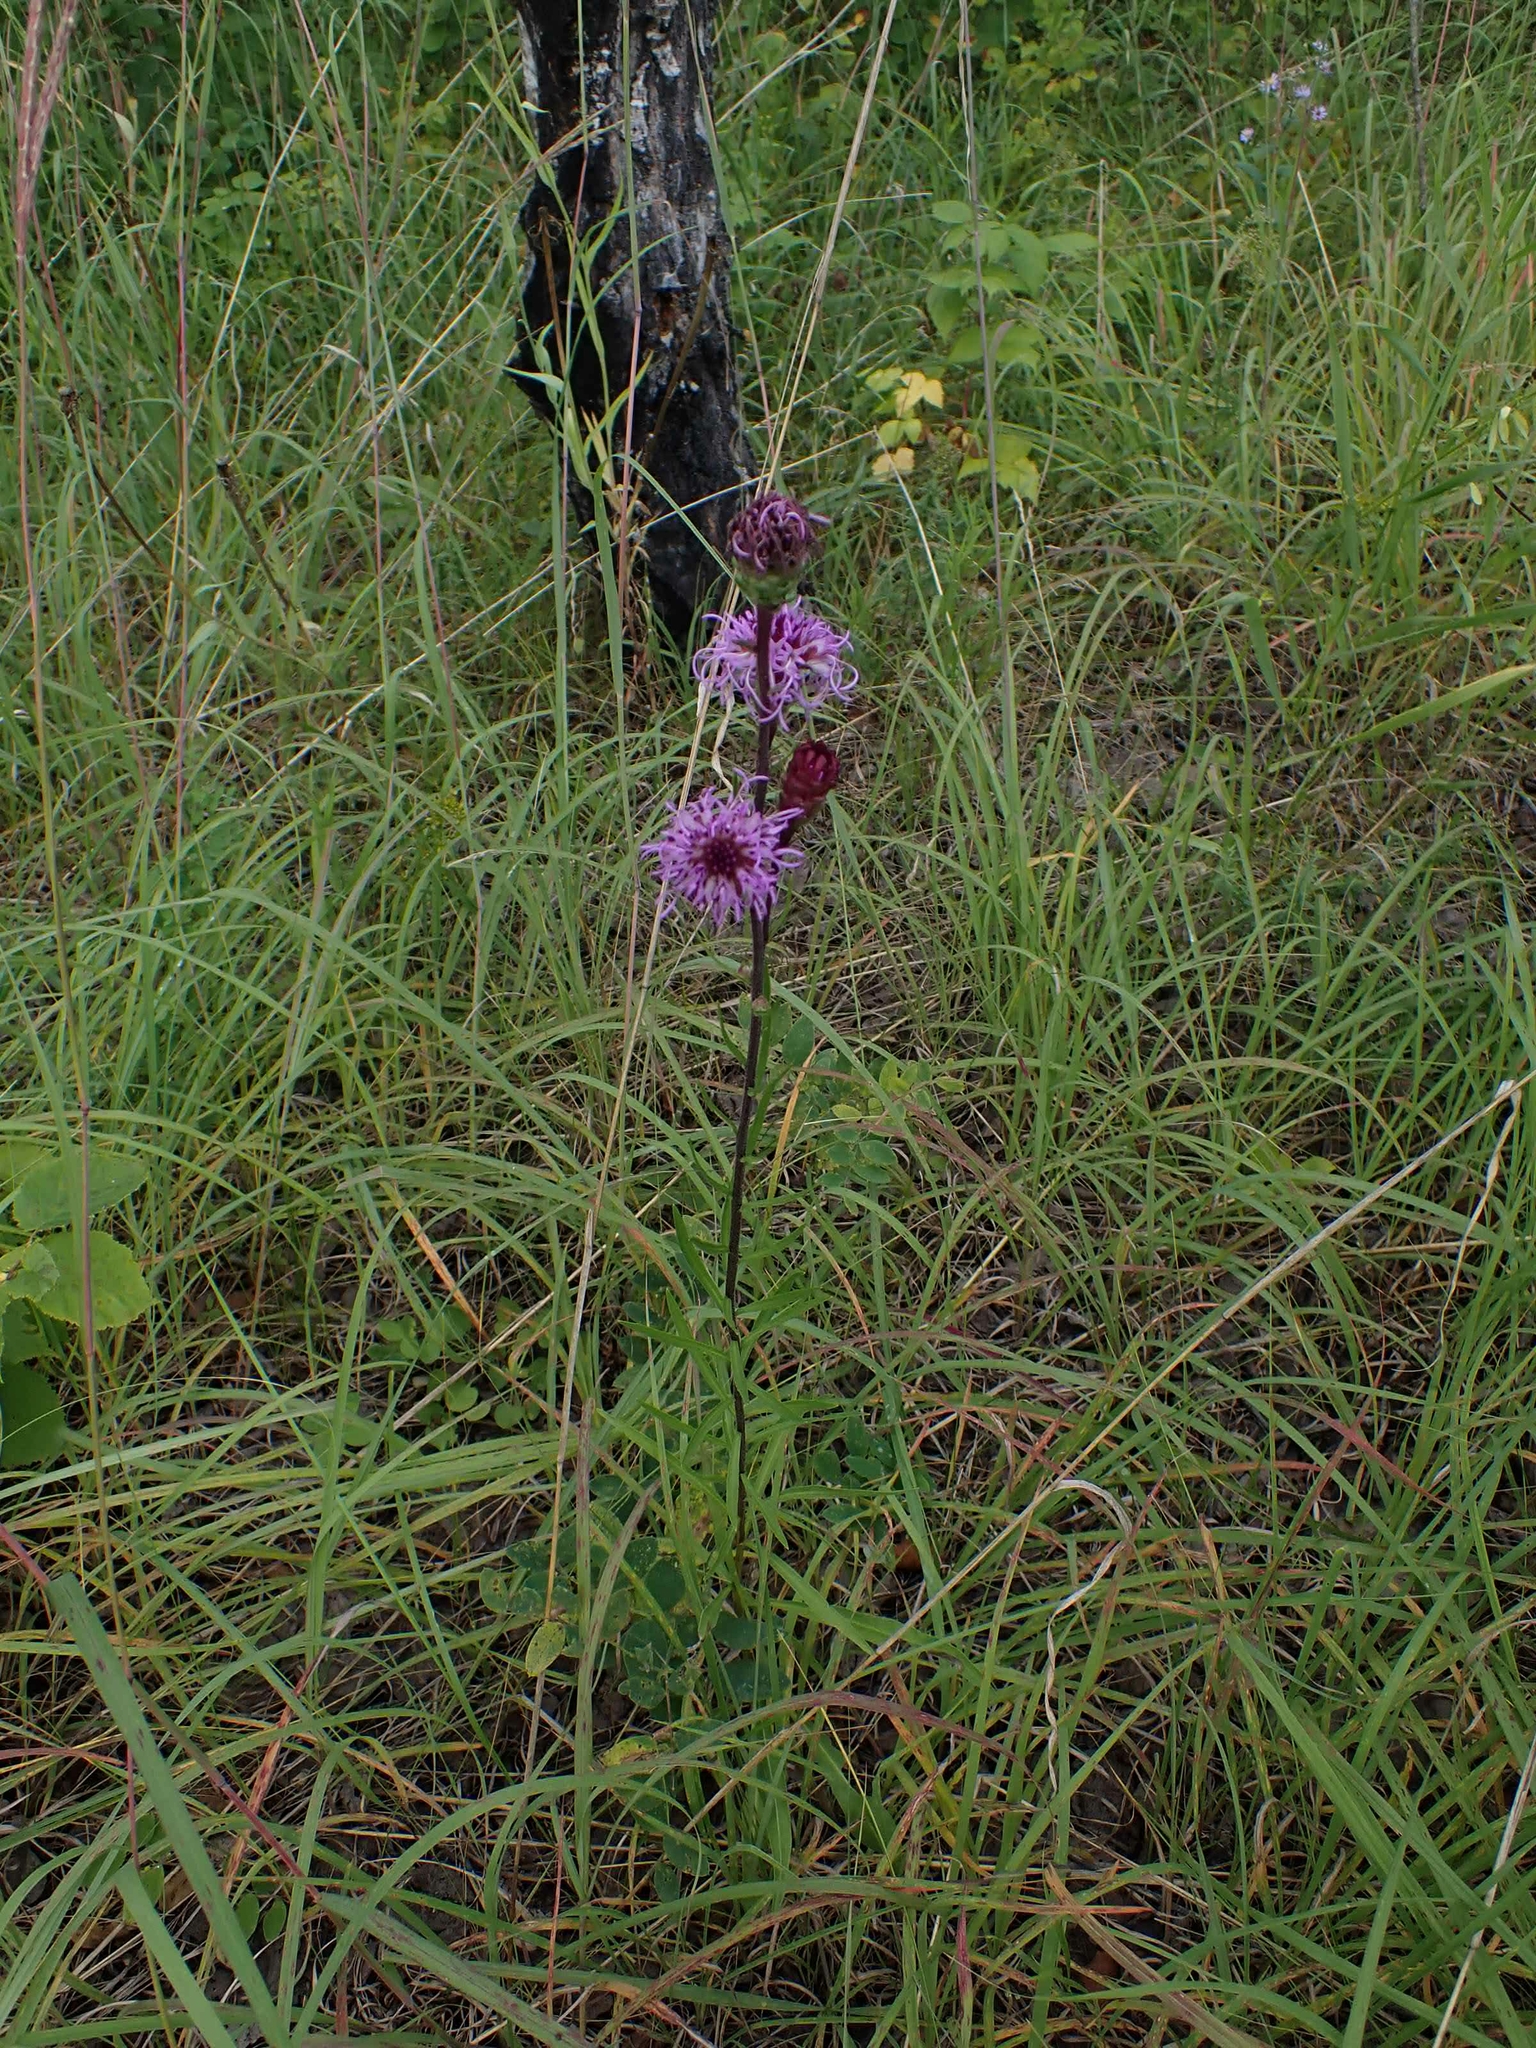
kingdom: Plantae
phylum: Tracheophyta
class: Magnoliopsida
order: Asterales
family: Asteraceae
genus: Liatris
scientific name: Liatris ligulistylis
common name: Northern plains gayfeather
